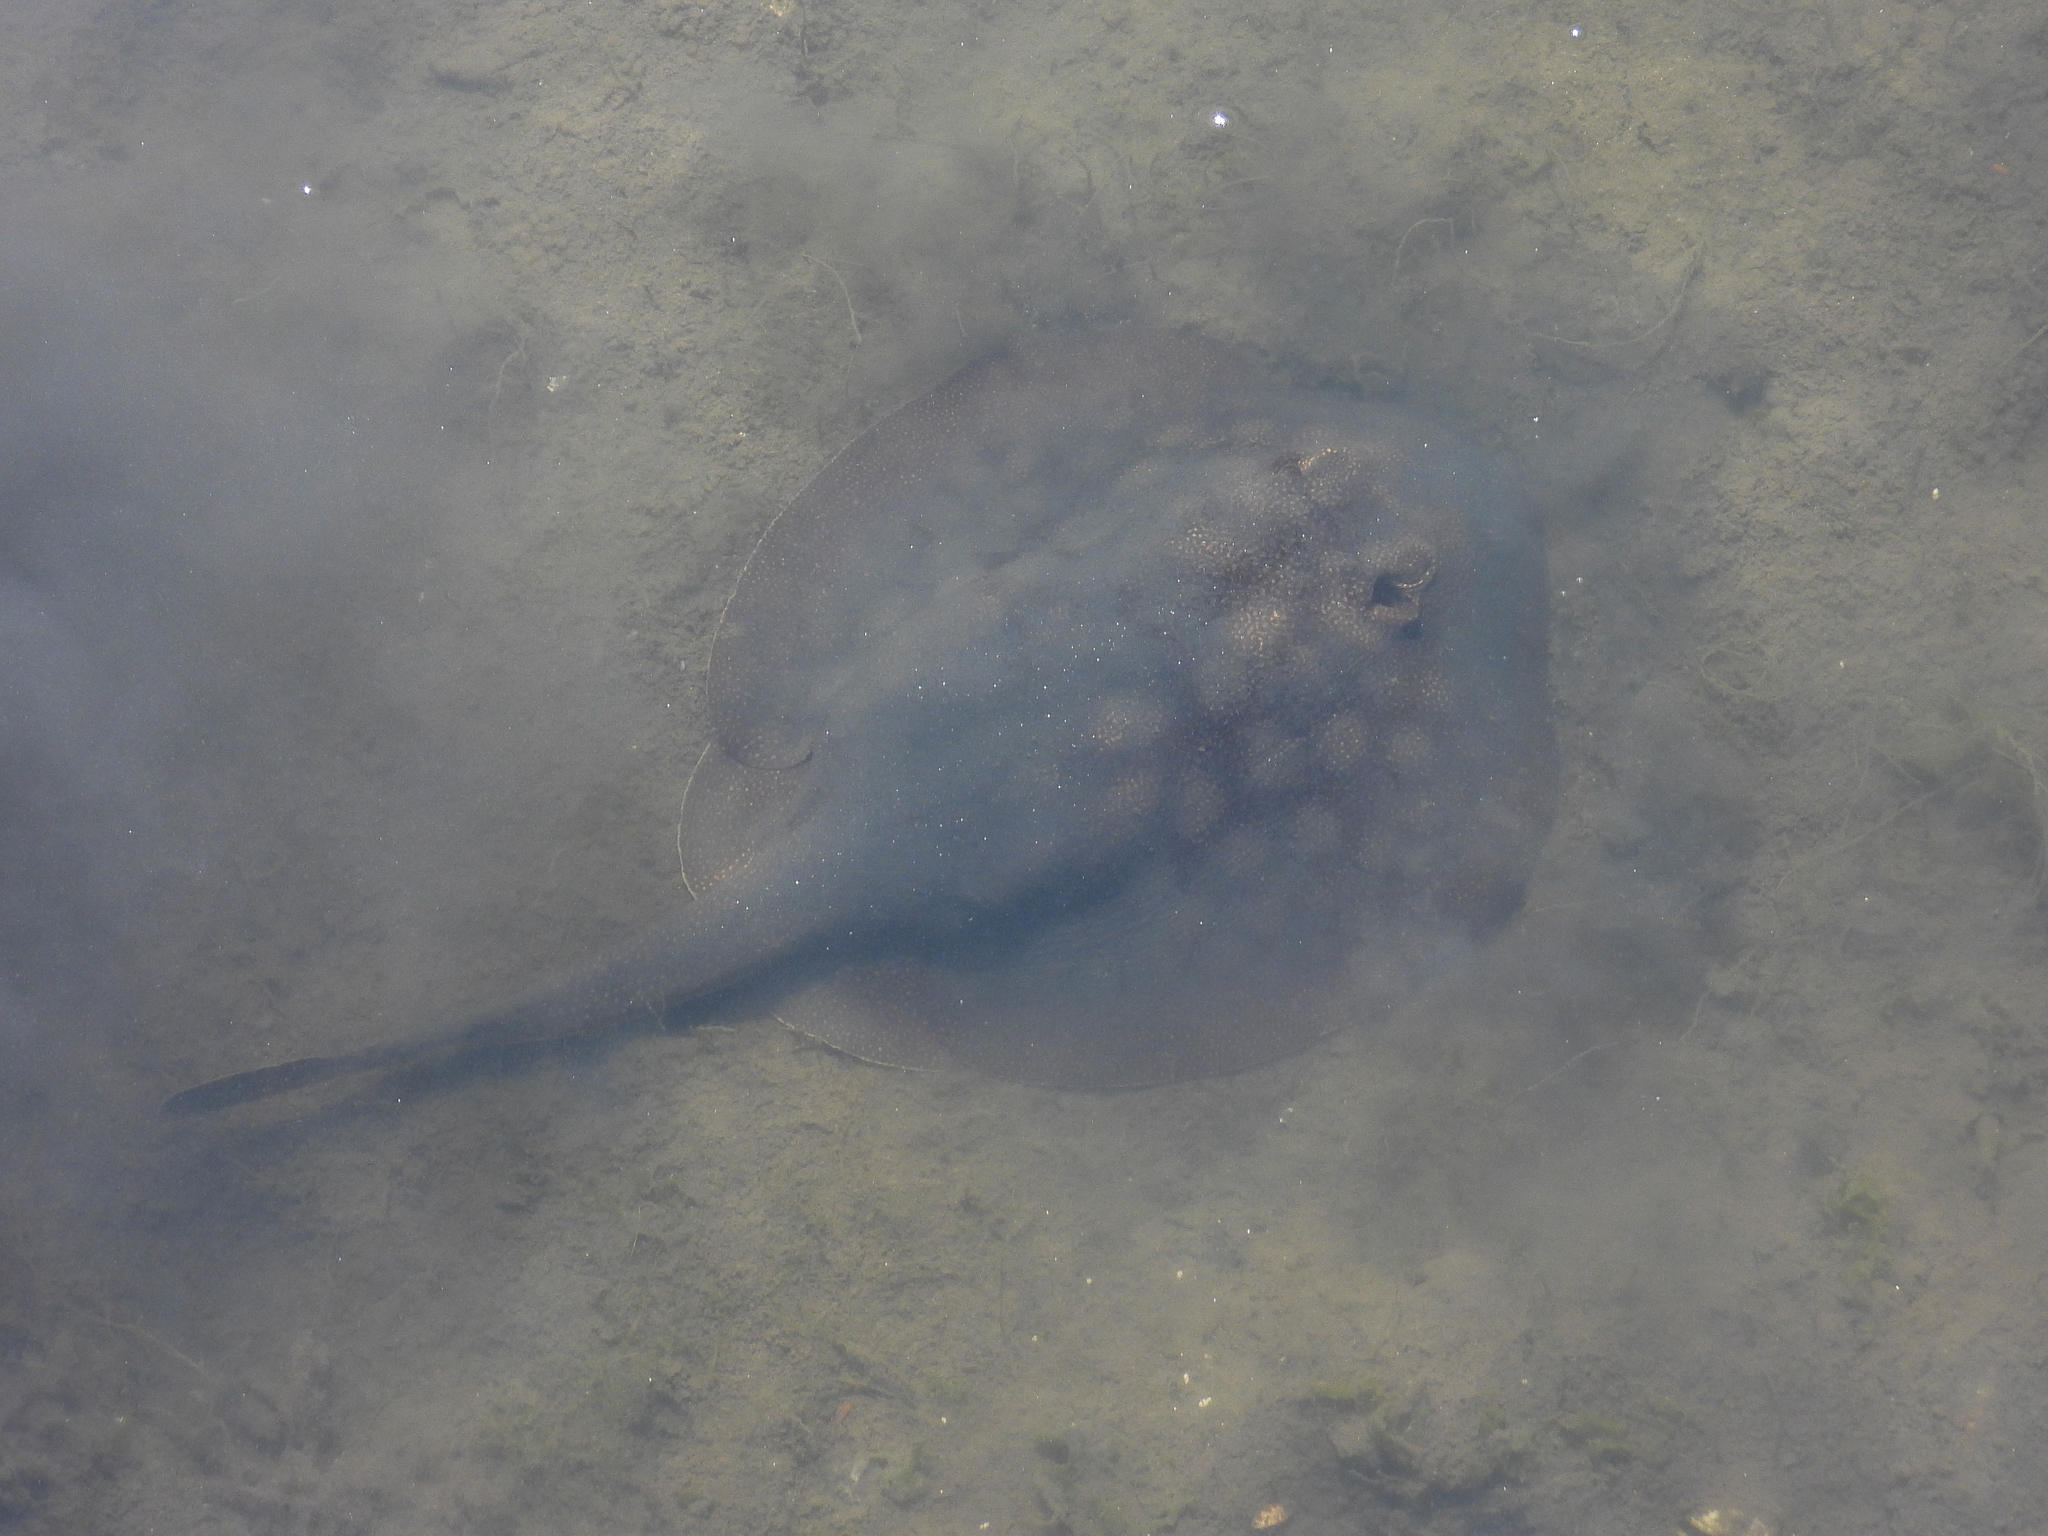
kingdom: Animalia
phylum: Chordata
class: Elasmobranchii
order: Myliobatiformes
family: Urolophidae
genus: Urolophus
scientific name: Urolophus halleri
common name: Round stingray
